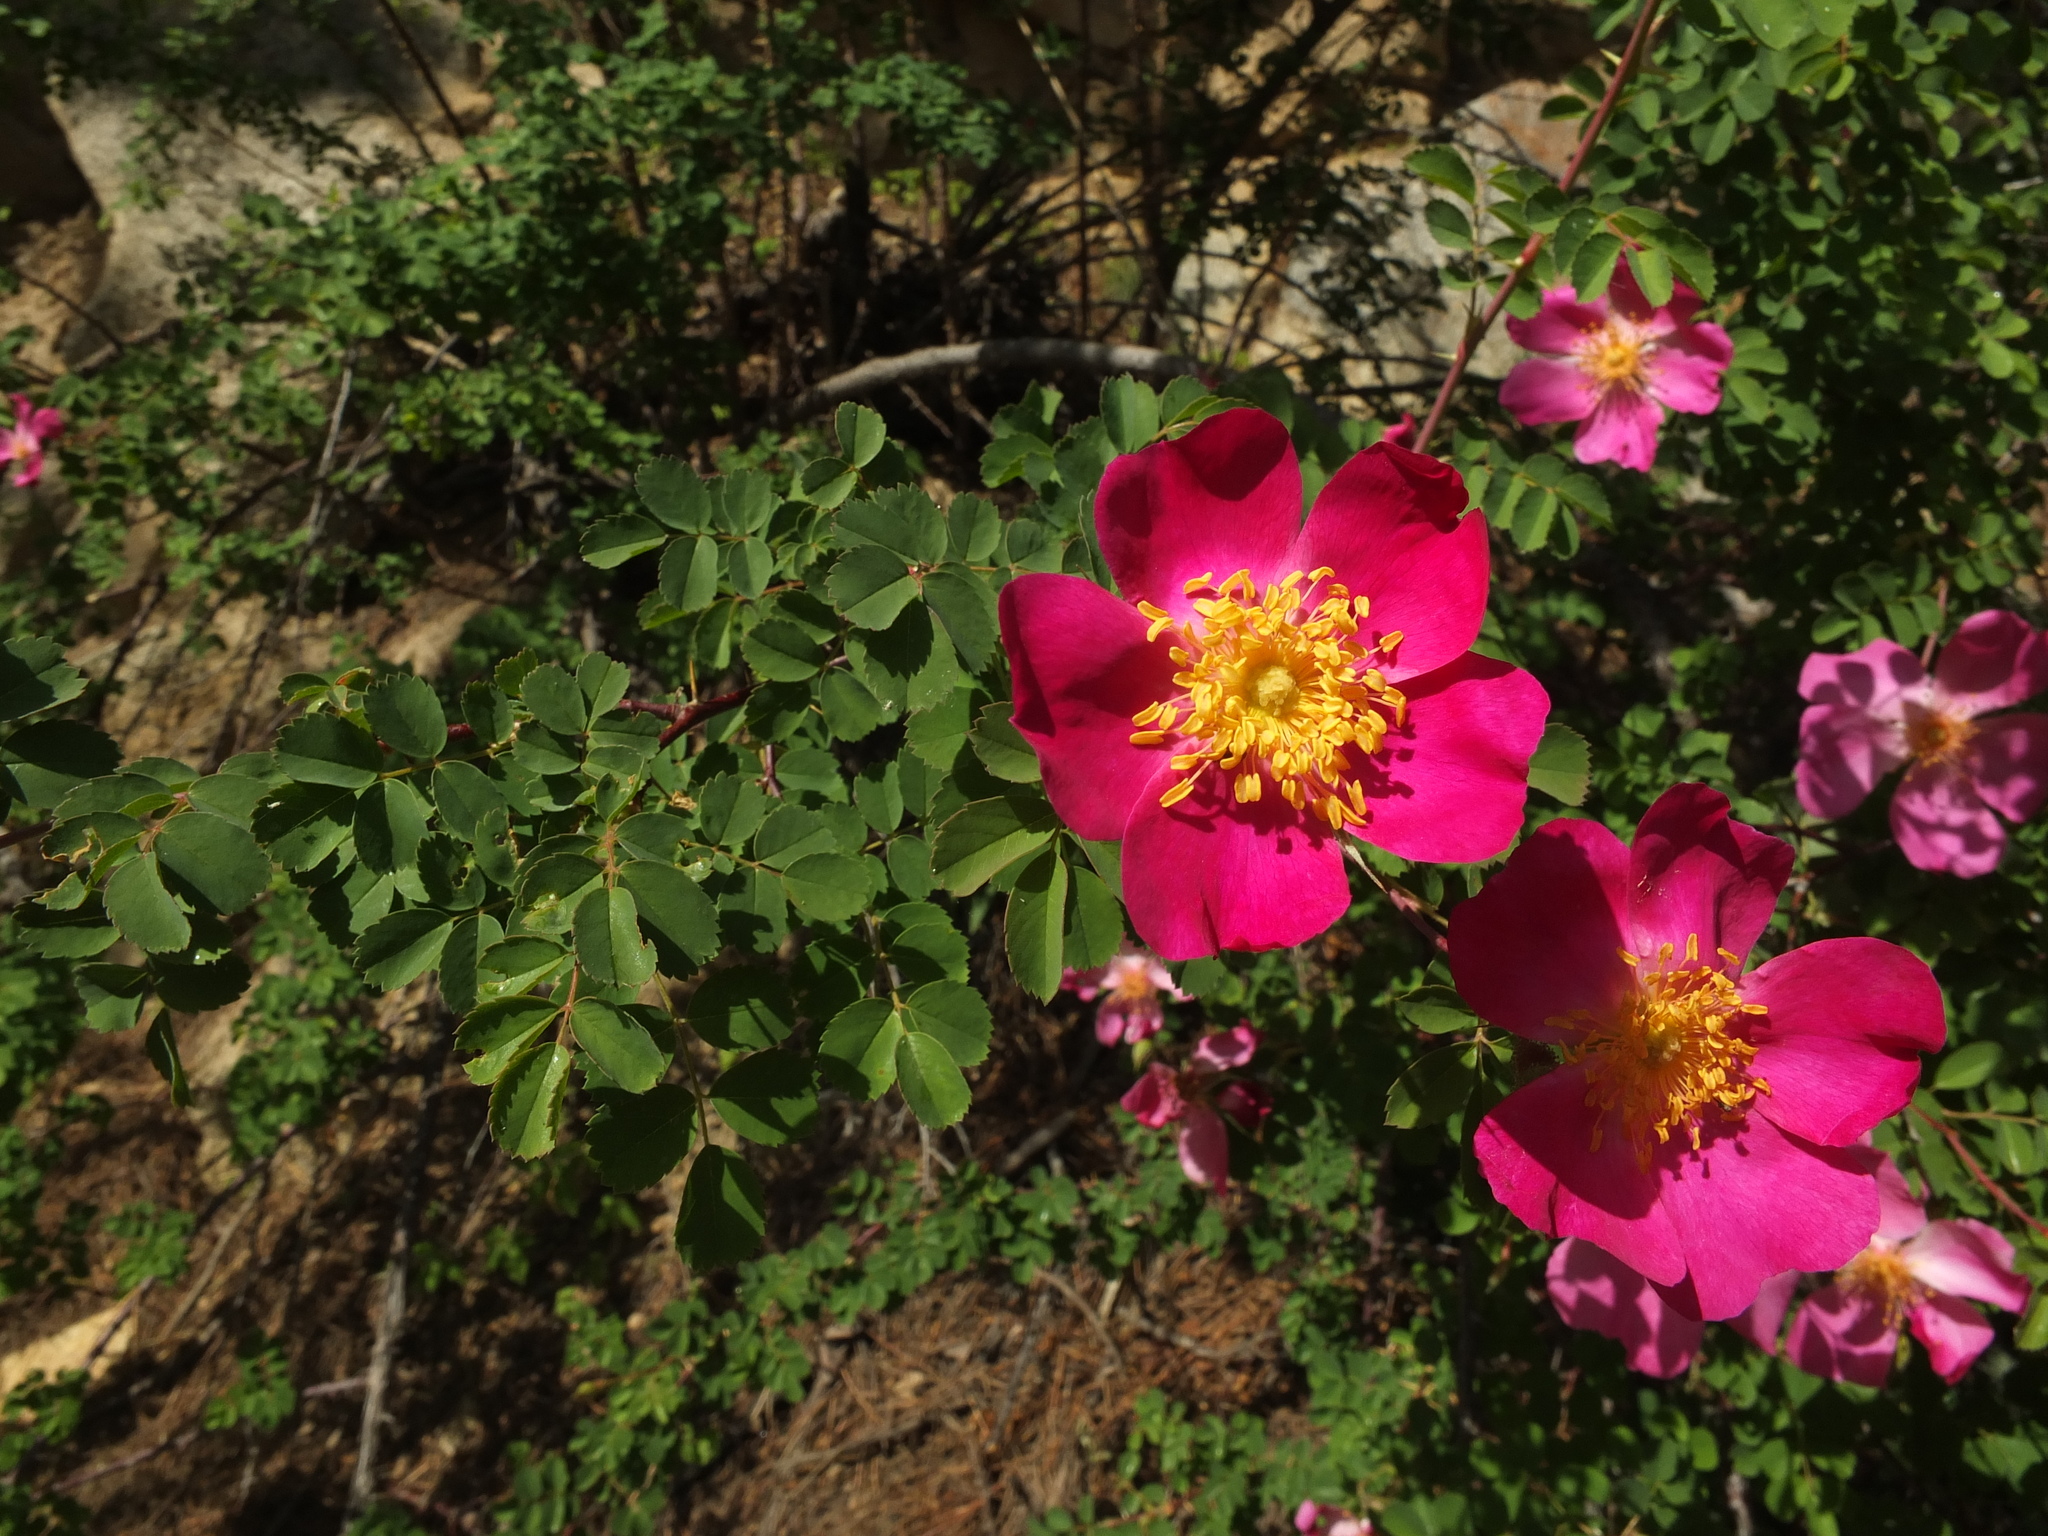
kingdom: Plantae
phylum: Tracheophyta
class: Magnoliopsida
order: Rosales
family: Rosaceae
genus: Rosa
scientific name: Rosa webbiana
